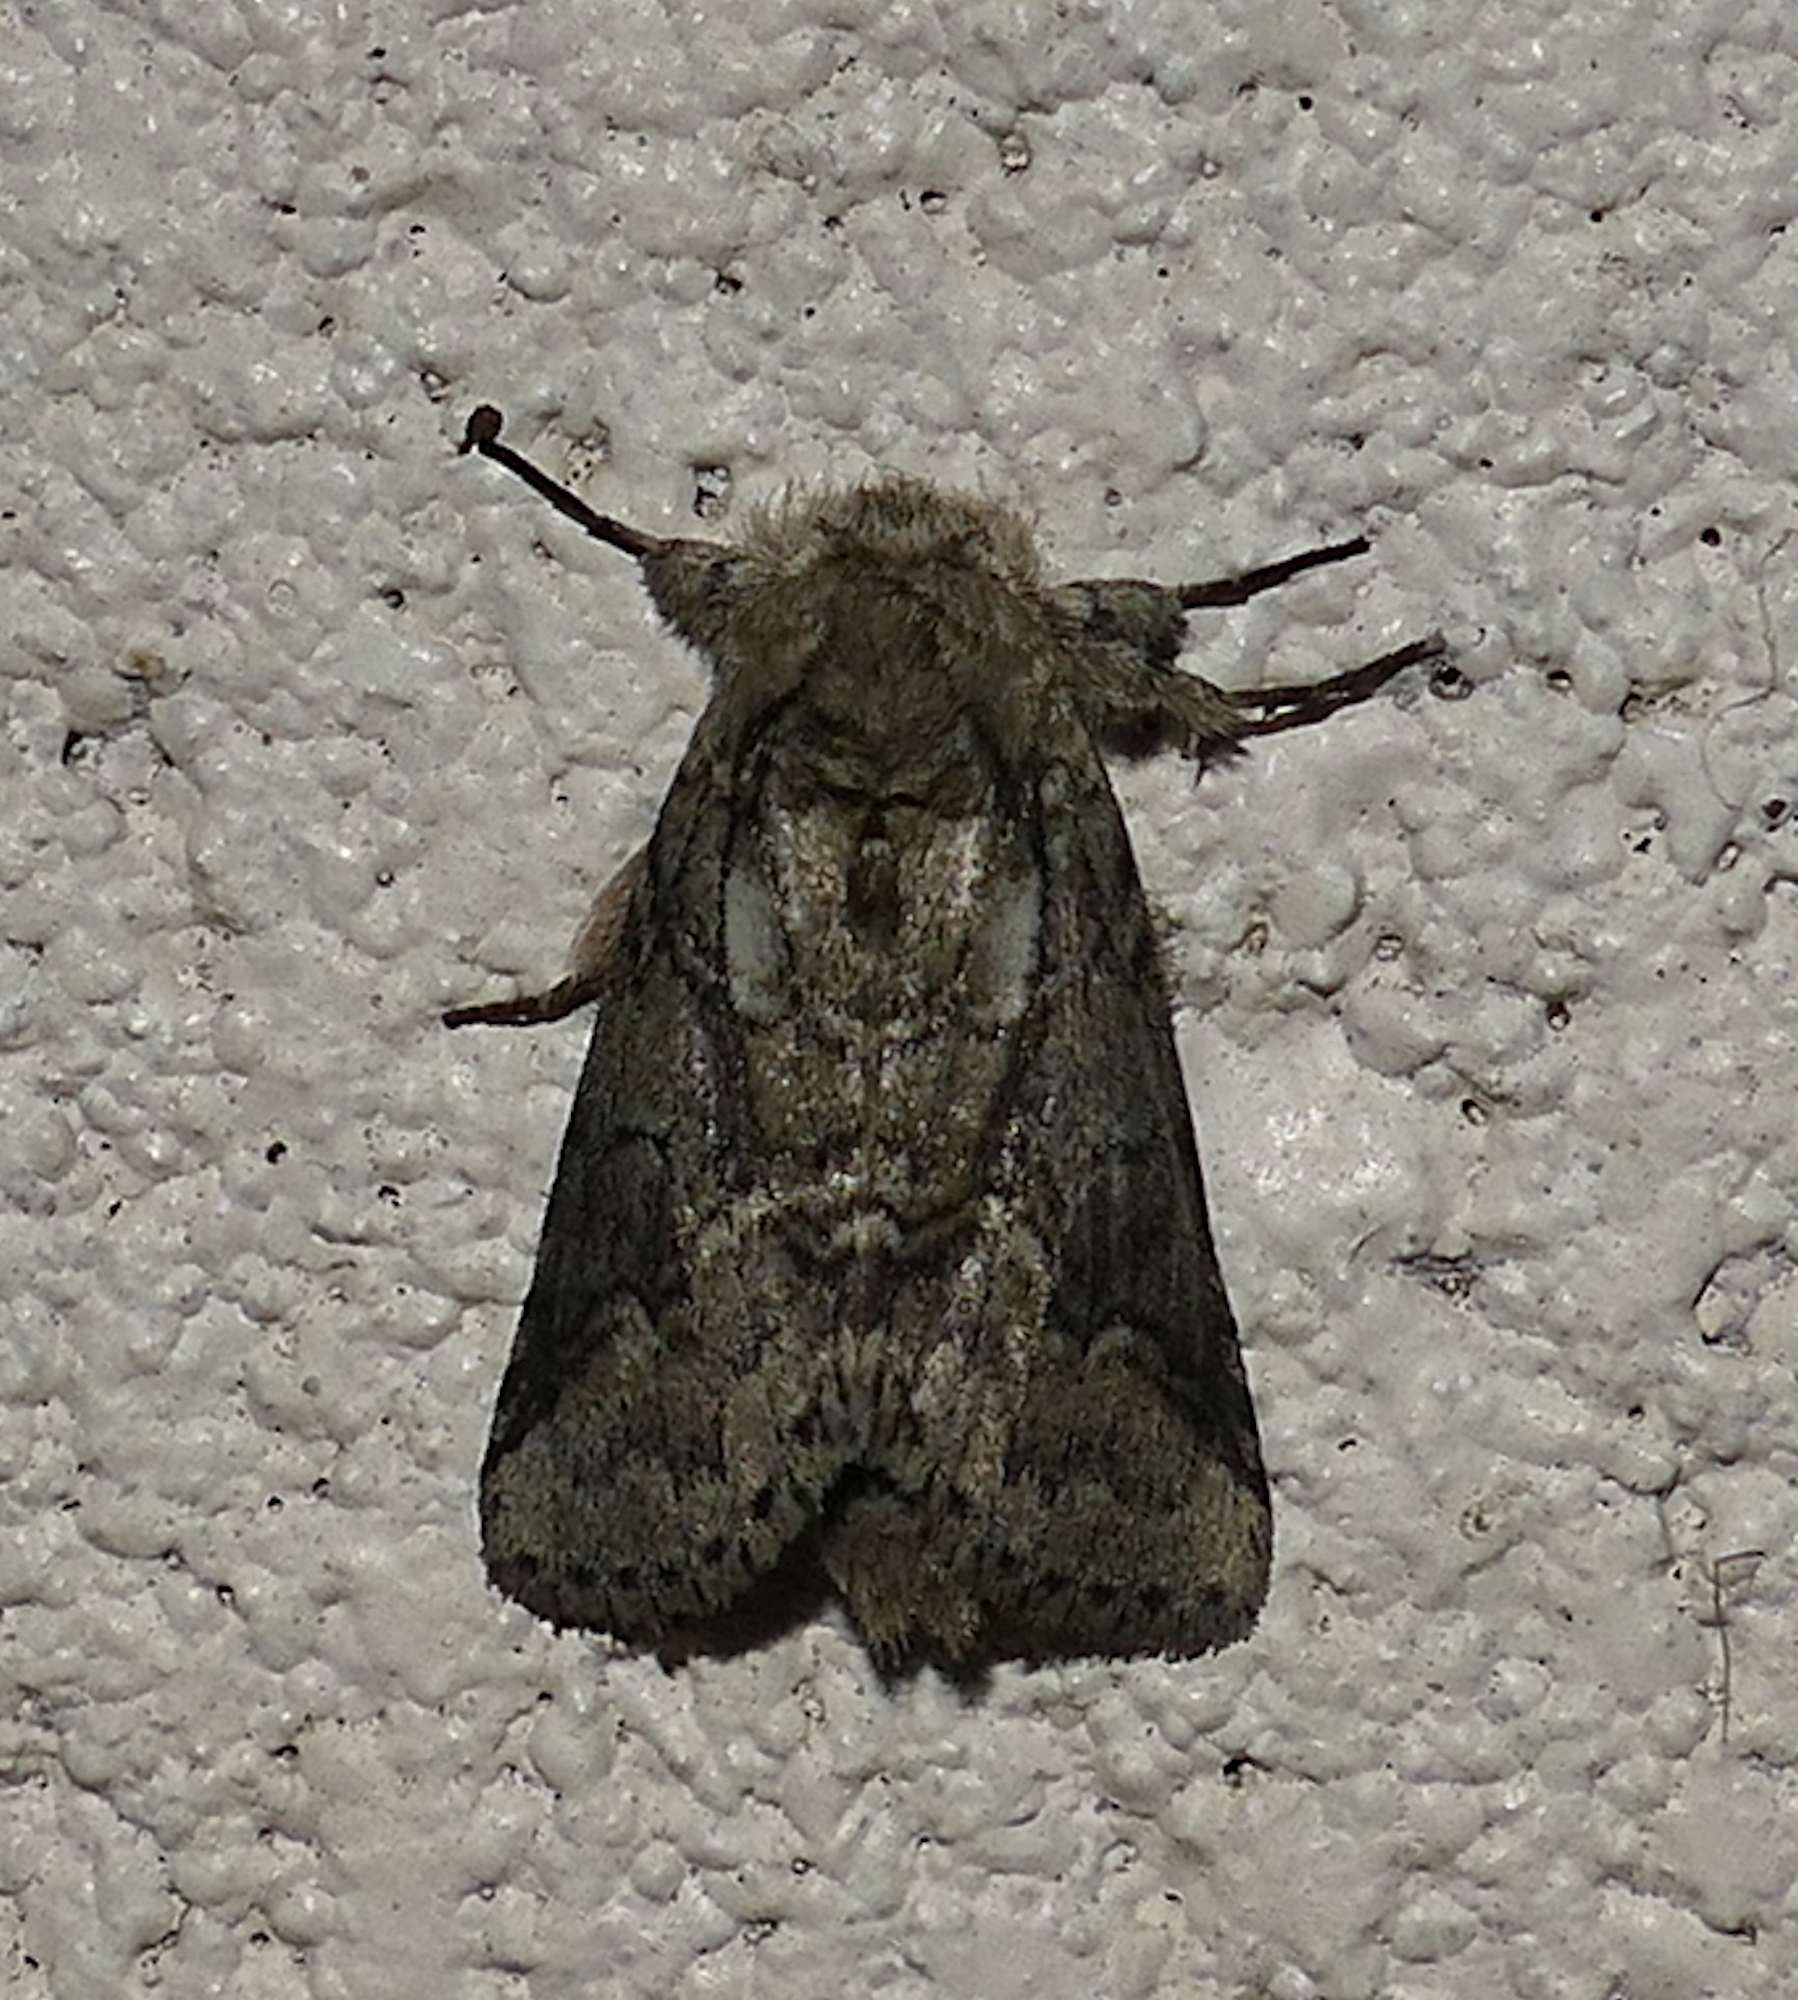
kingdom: Animalia
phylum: Arthropoda
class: Insecta
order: Lepidoptera
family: Notodontidae
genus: Lochmaeus
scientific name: Lochmaeus bilineata
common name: Double-lined prominent
